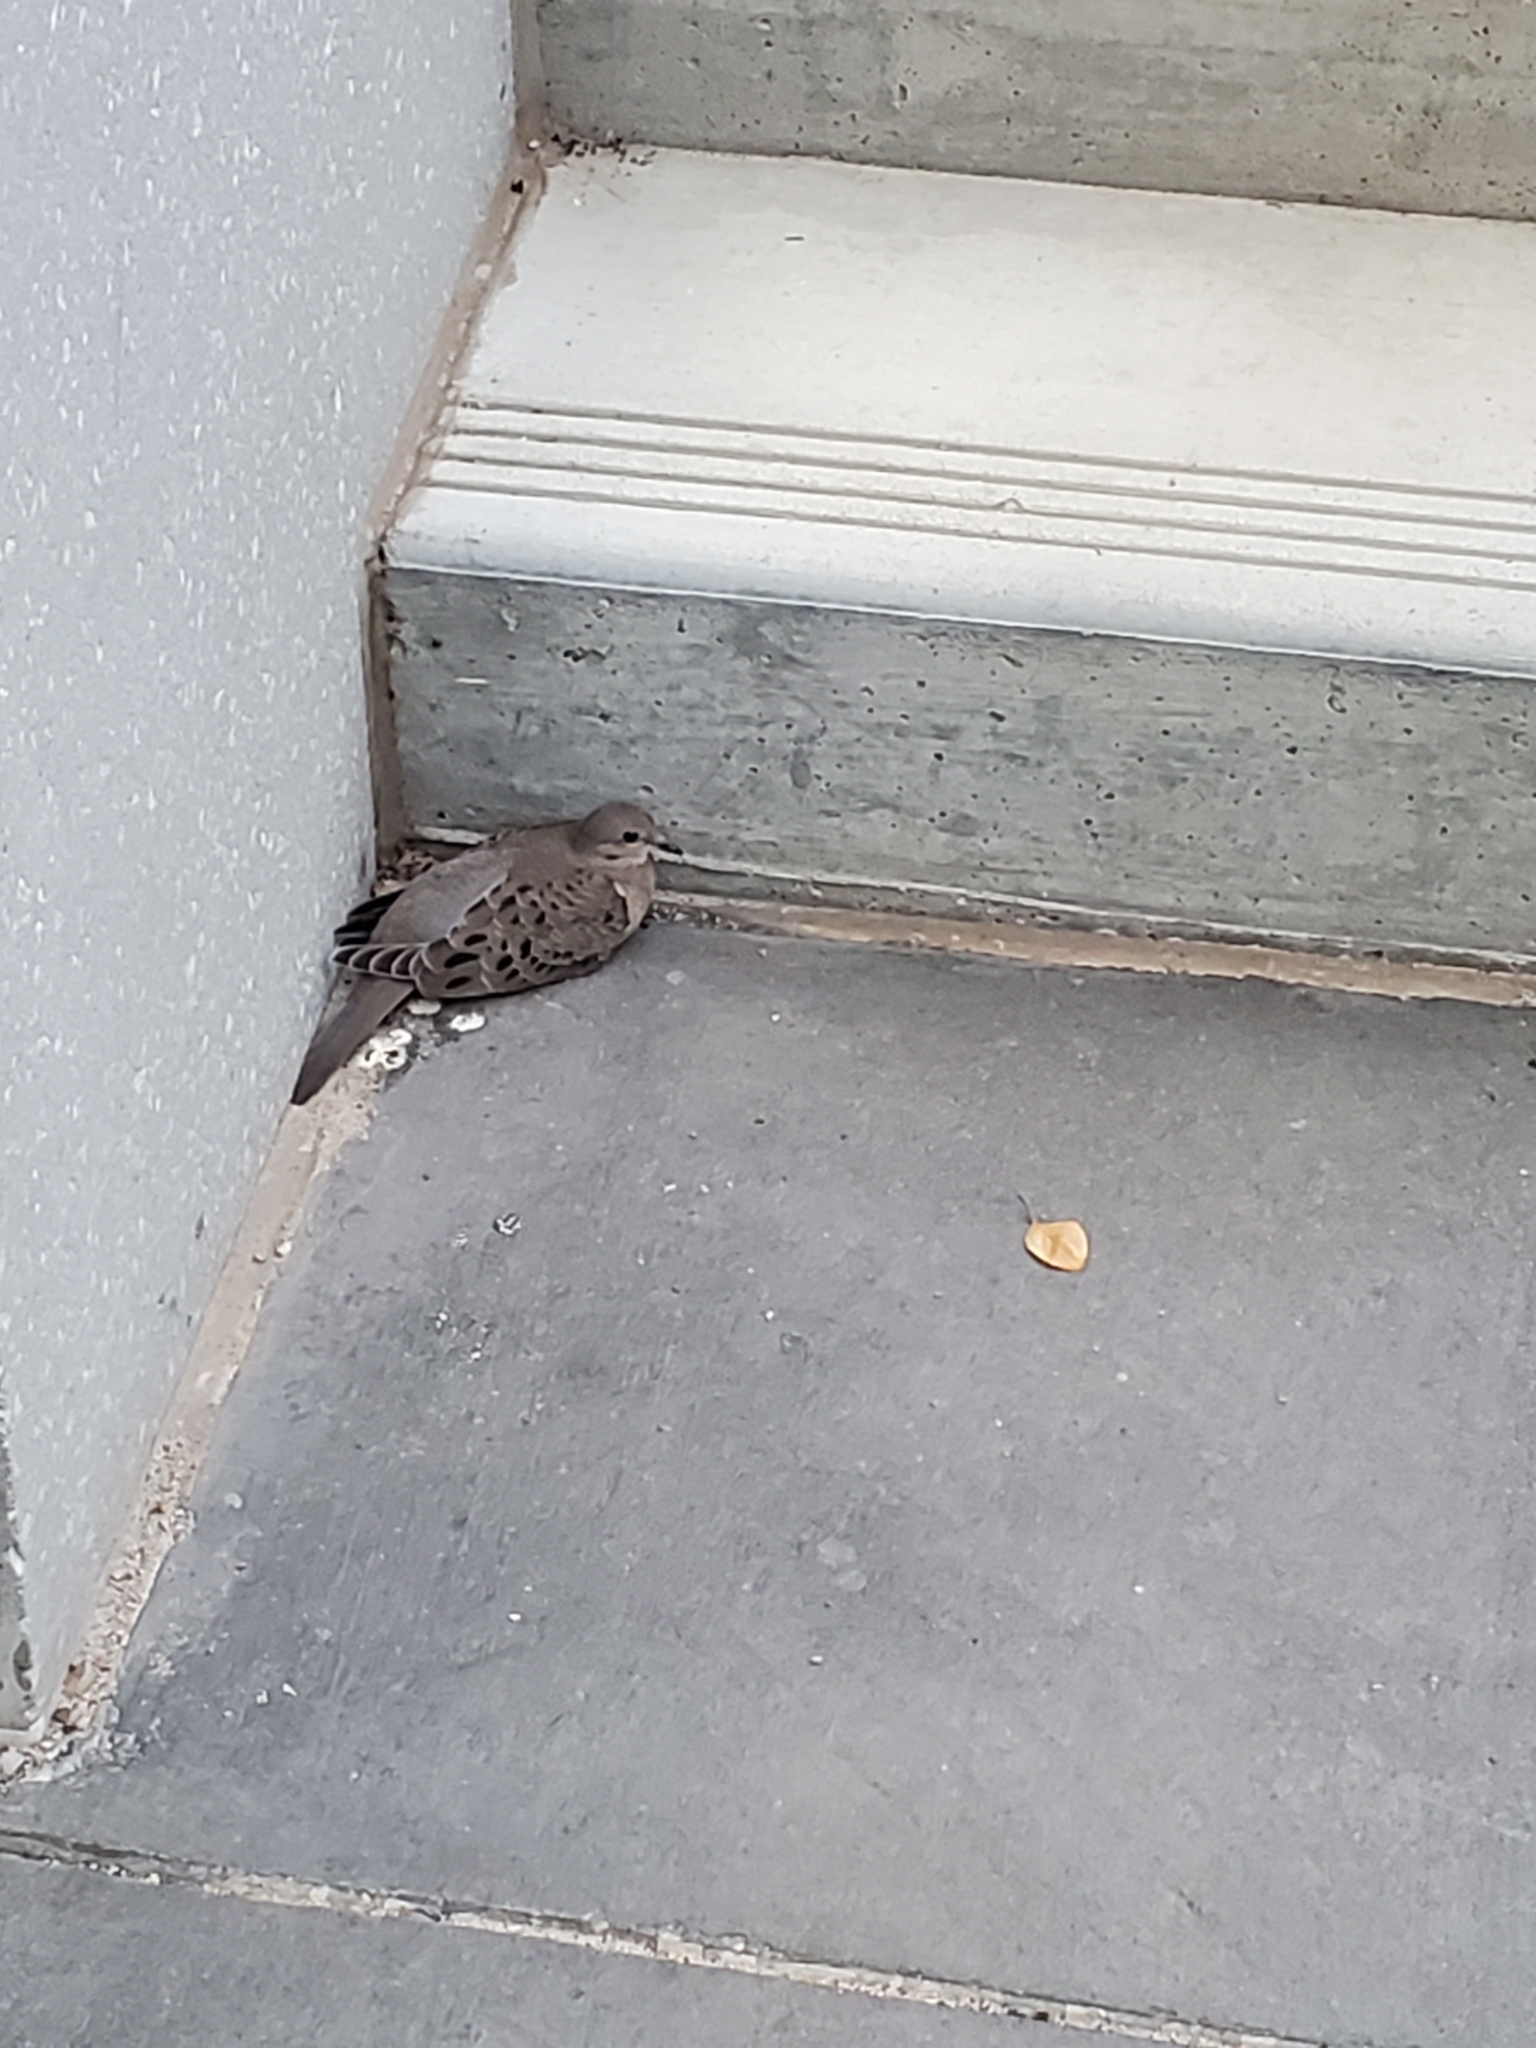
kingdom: Animalia
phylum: Chordata
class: Aves
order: Columbiformes
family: Columbidae
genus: Zenaida
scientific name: Zenaida macroura
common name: Mourning dove
